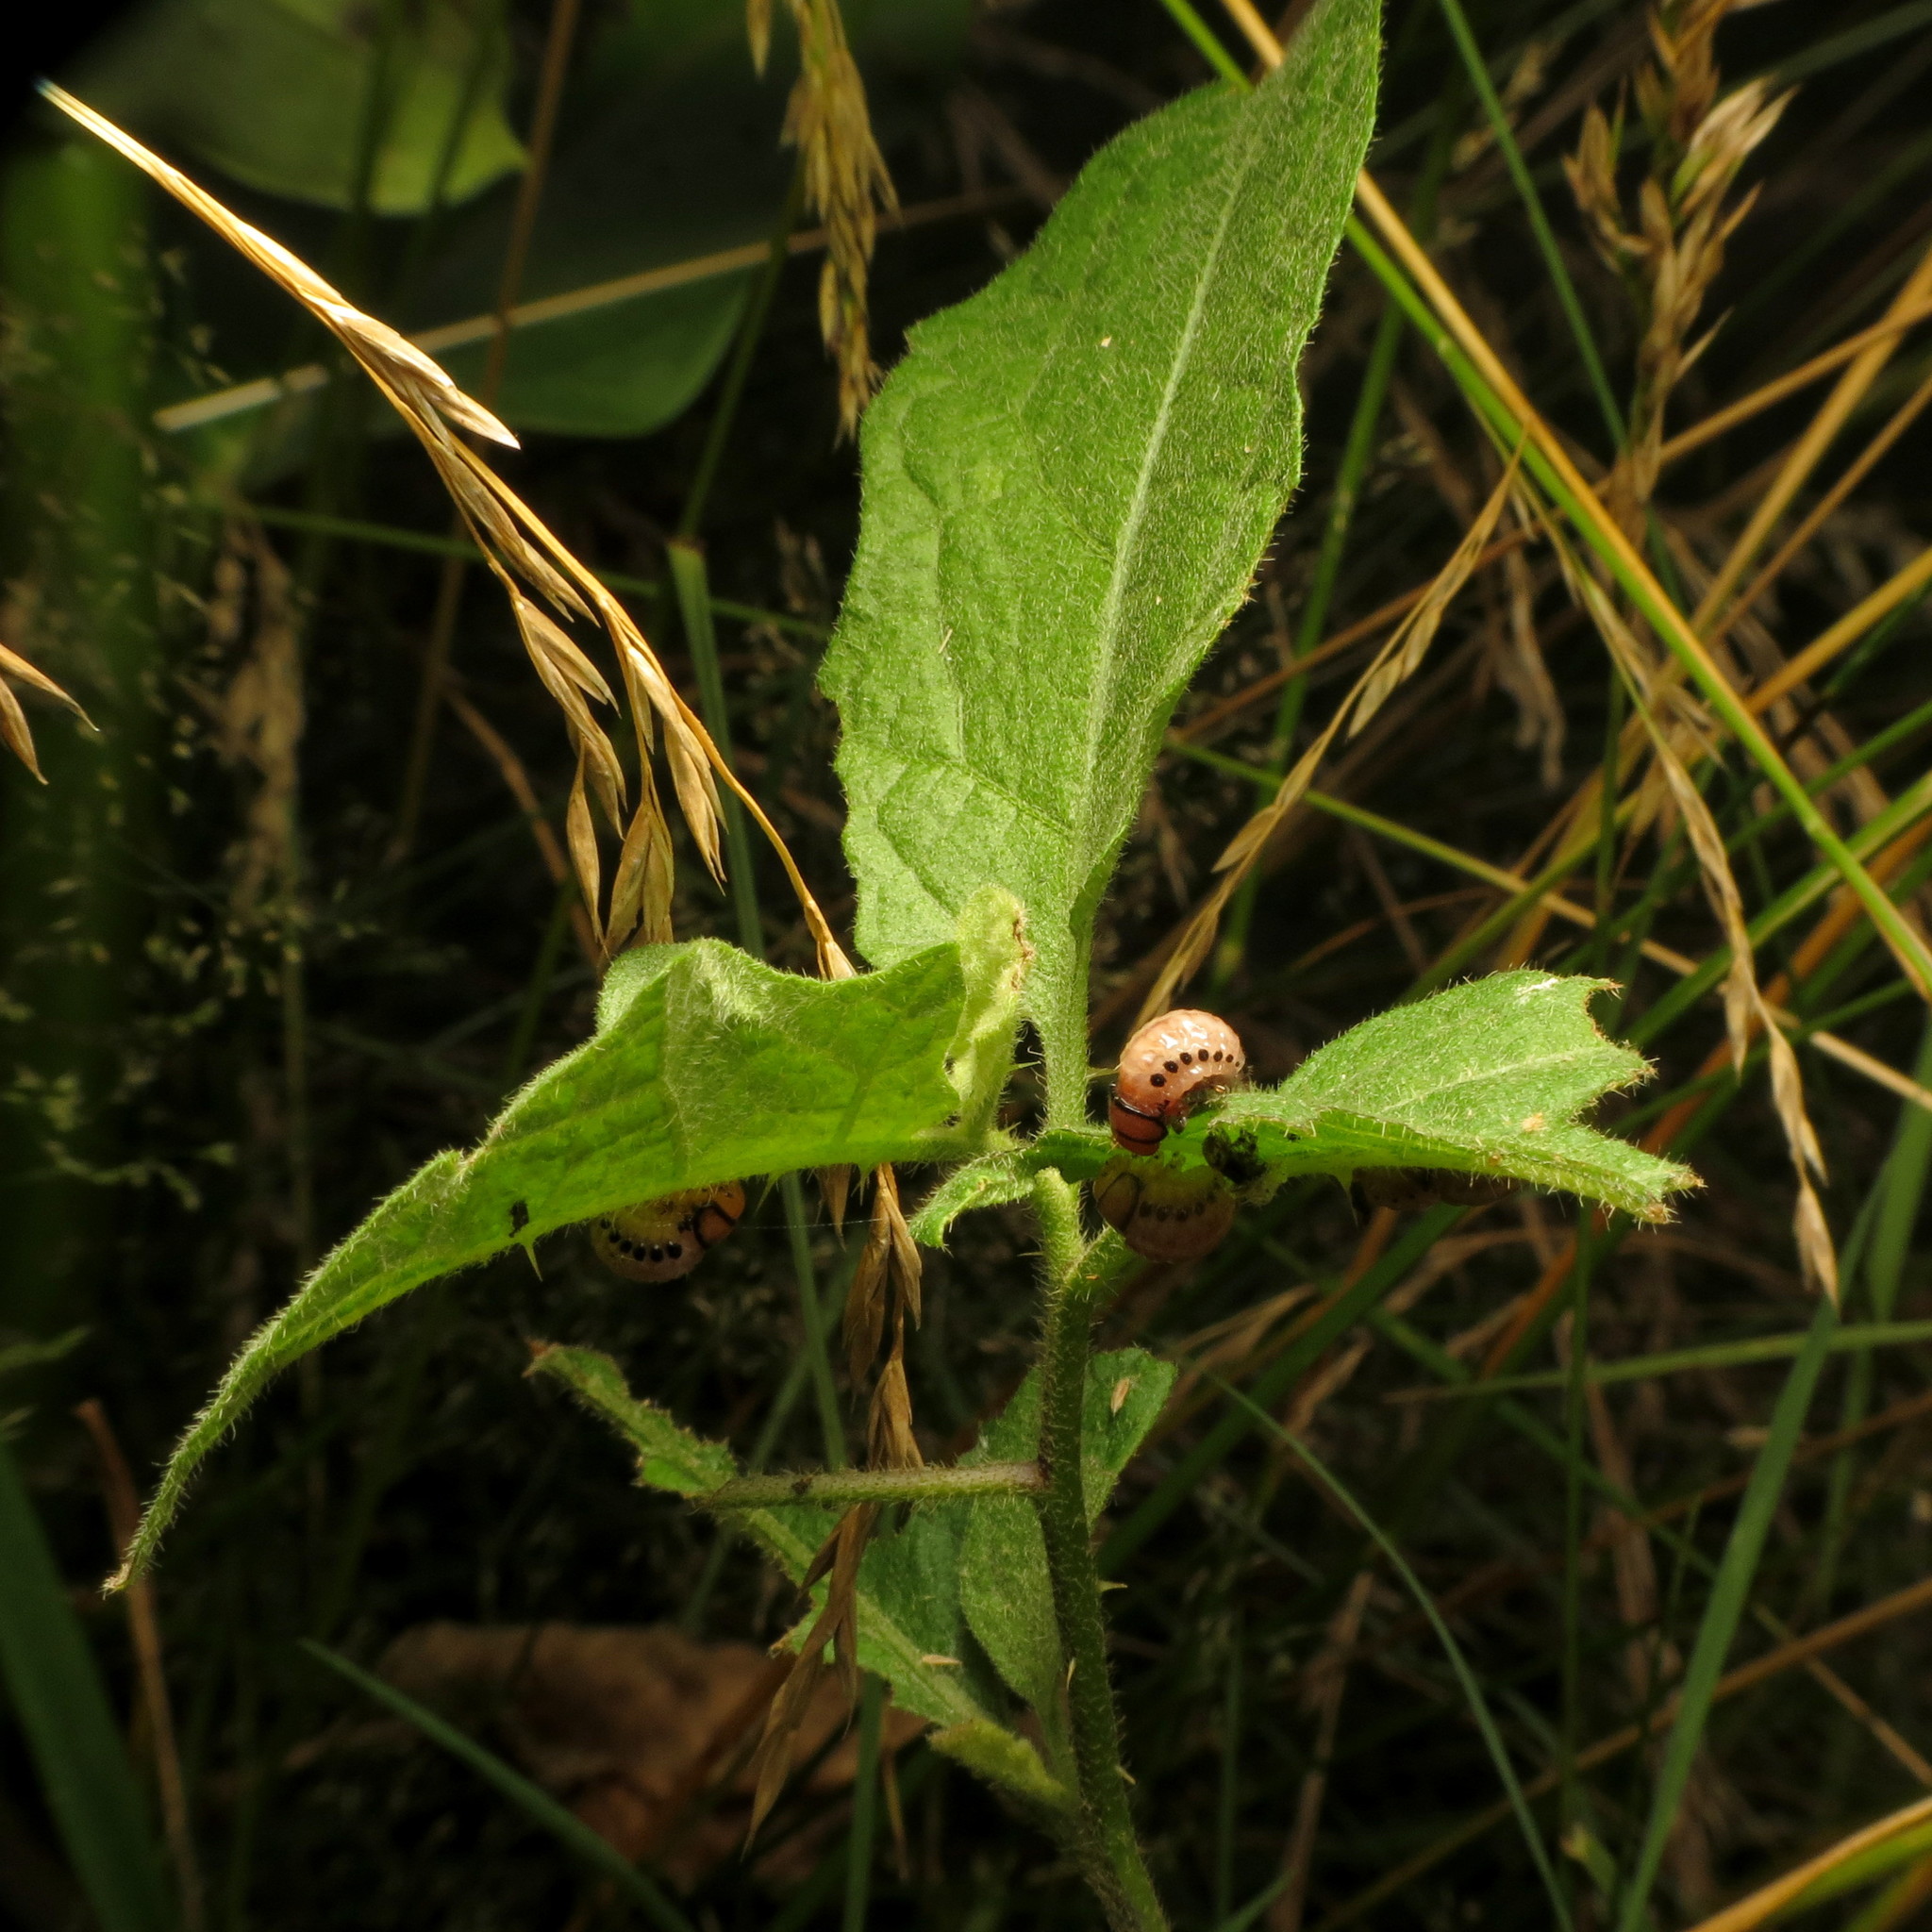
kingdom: Plantae
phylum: Tracheophyta
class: Magnoliopsida
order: Solanales
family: Solanaceae
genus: Solanum
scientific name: Solanum carolinense
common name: Horse-nettle
